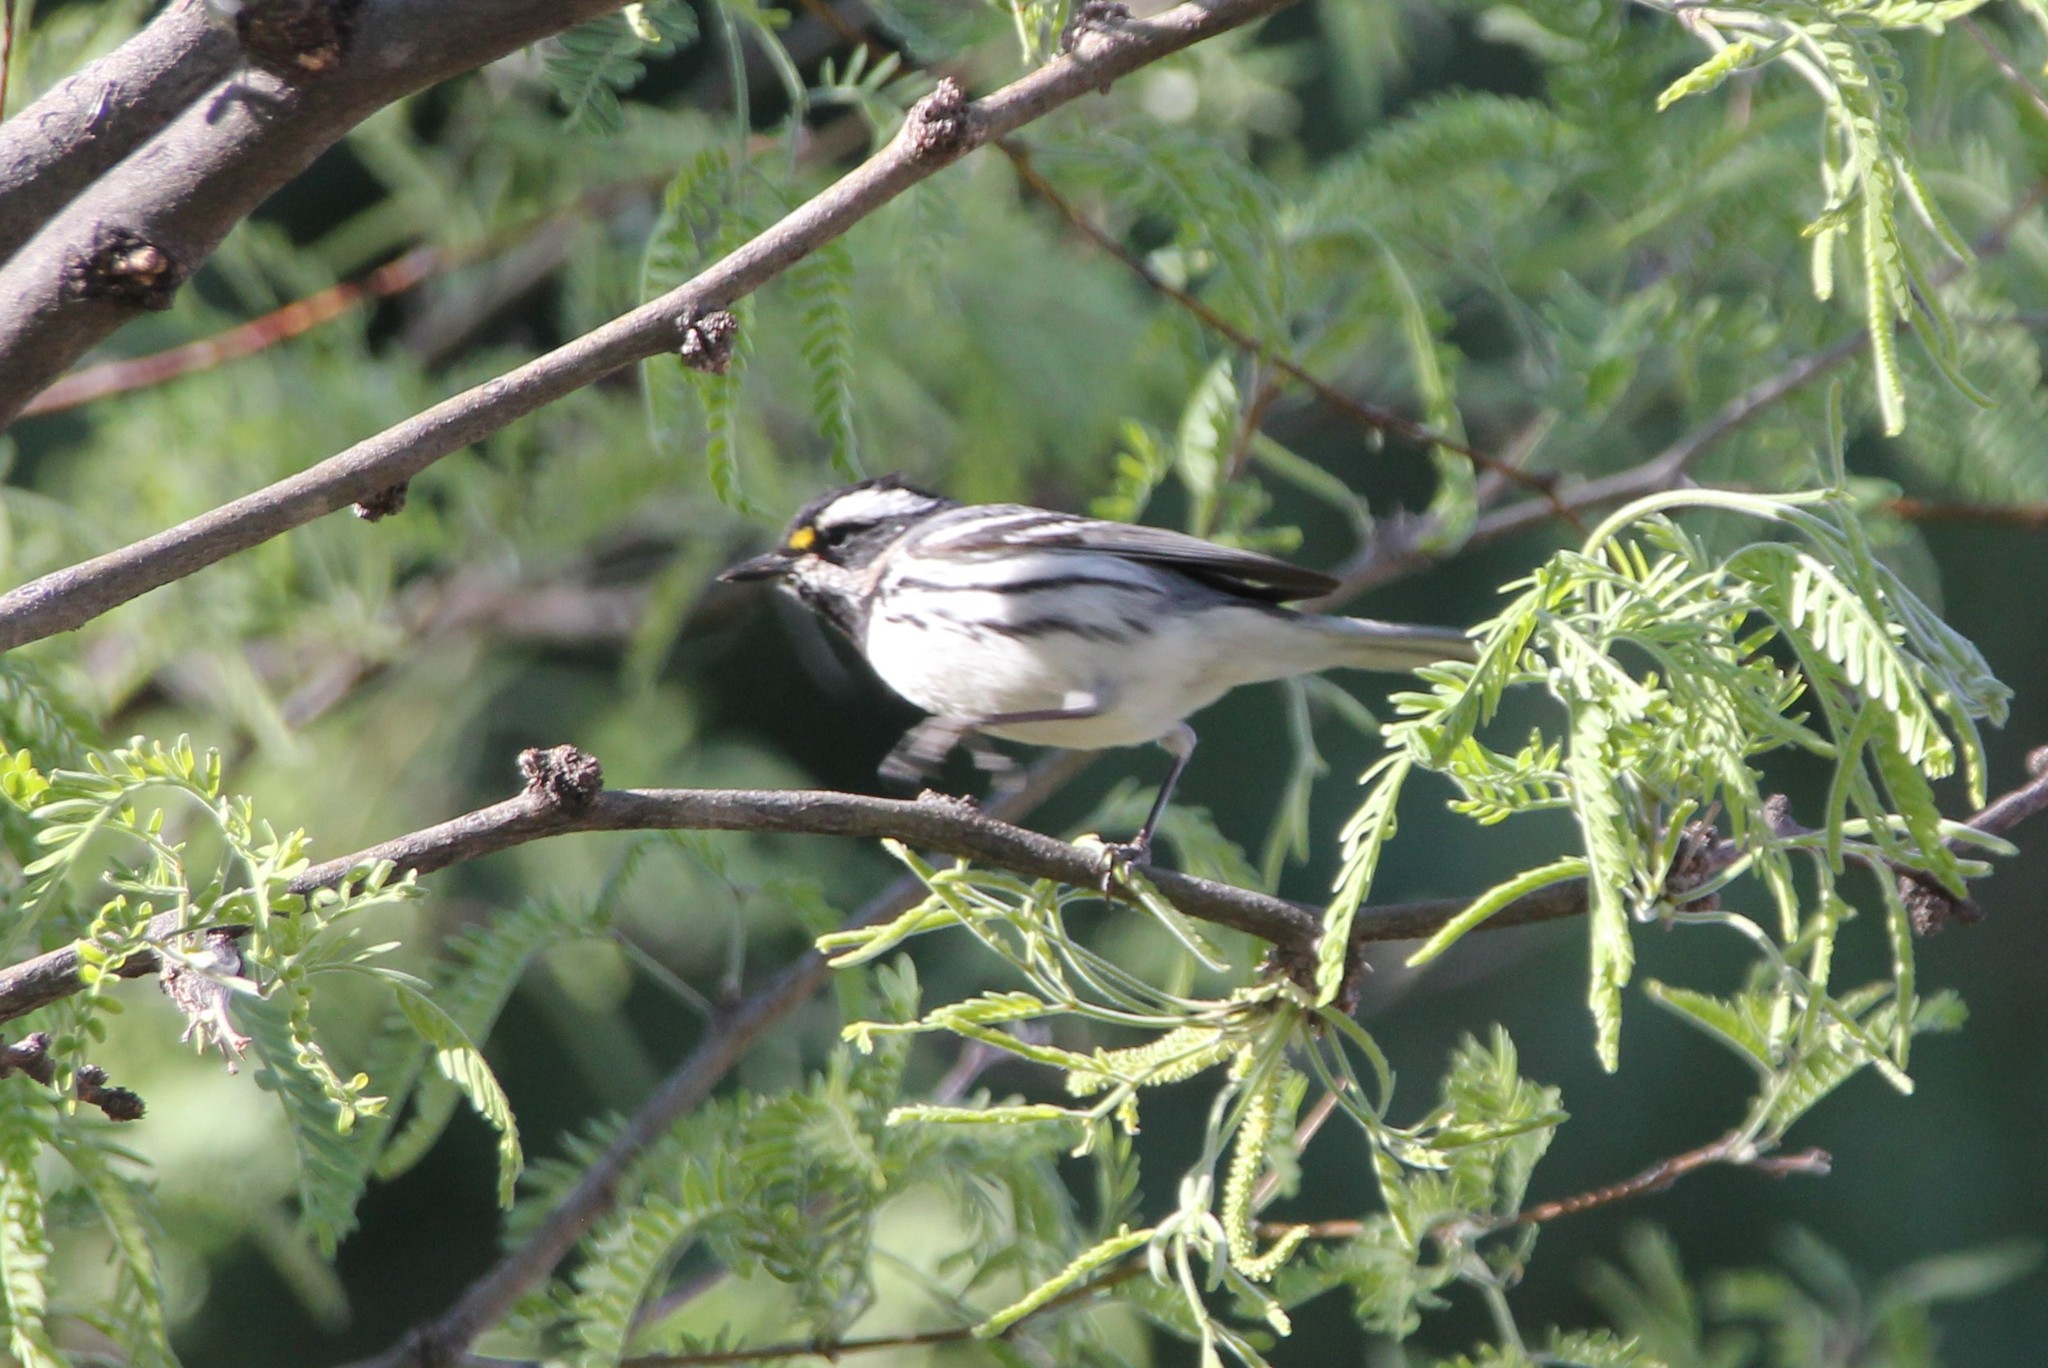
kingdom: Animalia
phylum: Chordata
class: Aves
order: Passeriformes
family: Parulidae
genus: Setophaga
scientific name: Setophaga nigrescens
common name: Black-throated gray warbler
